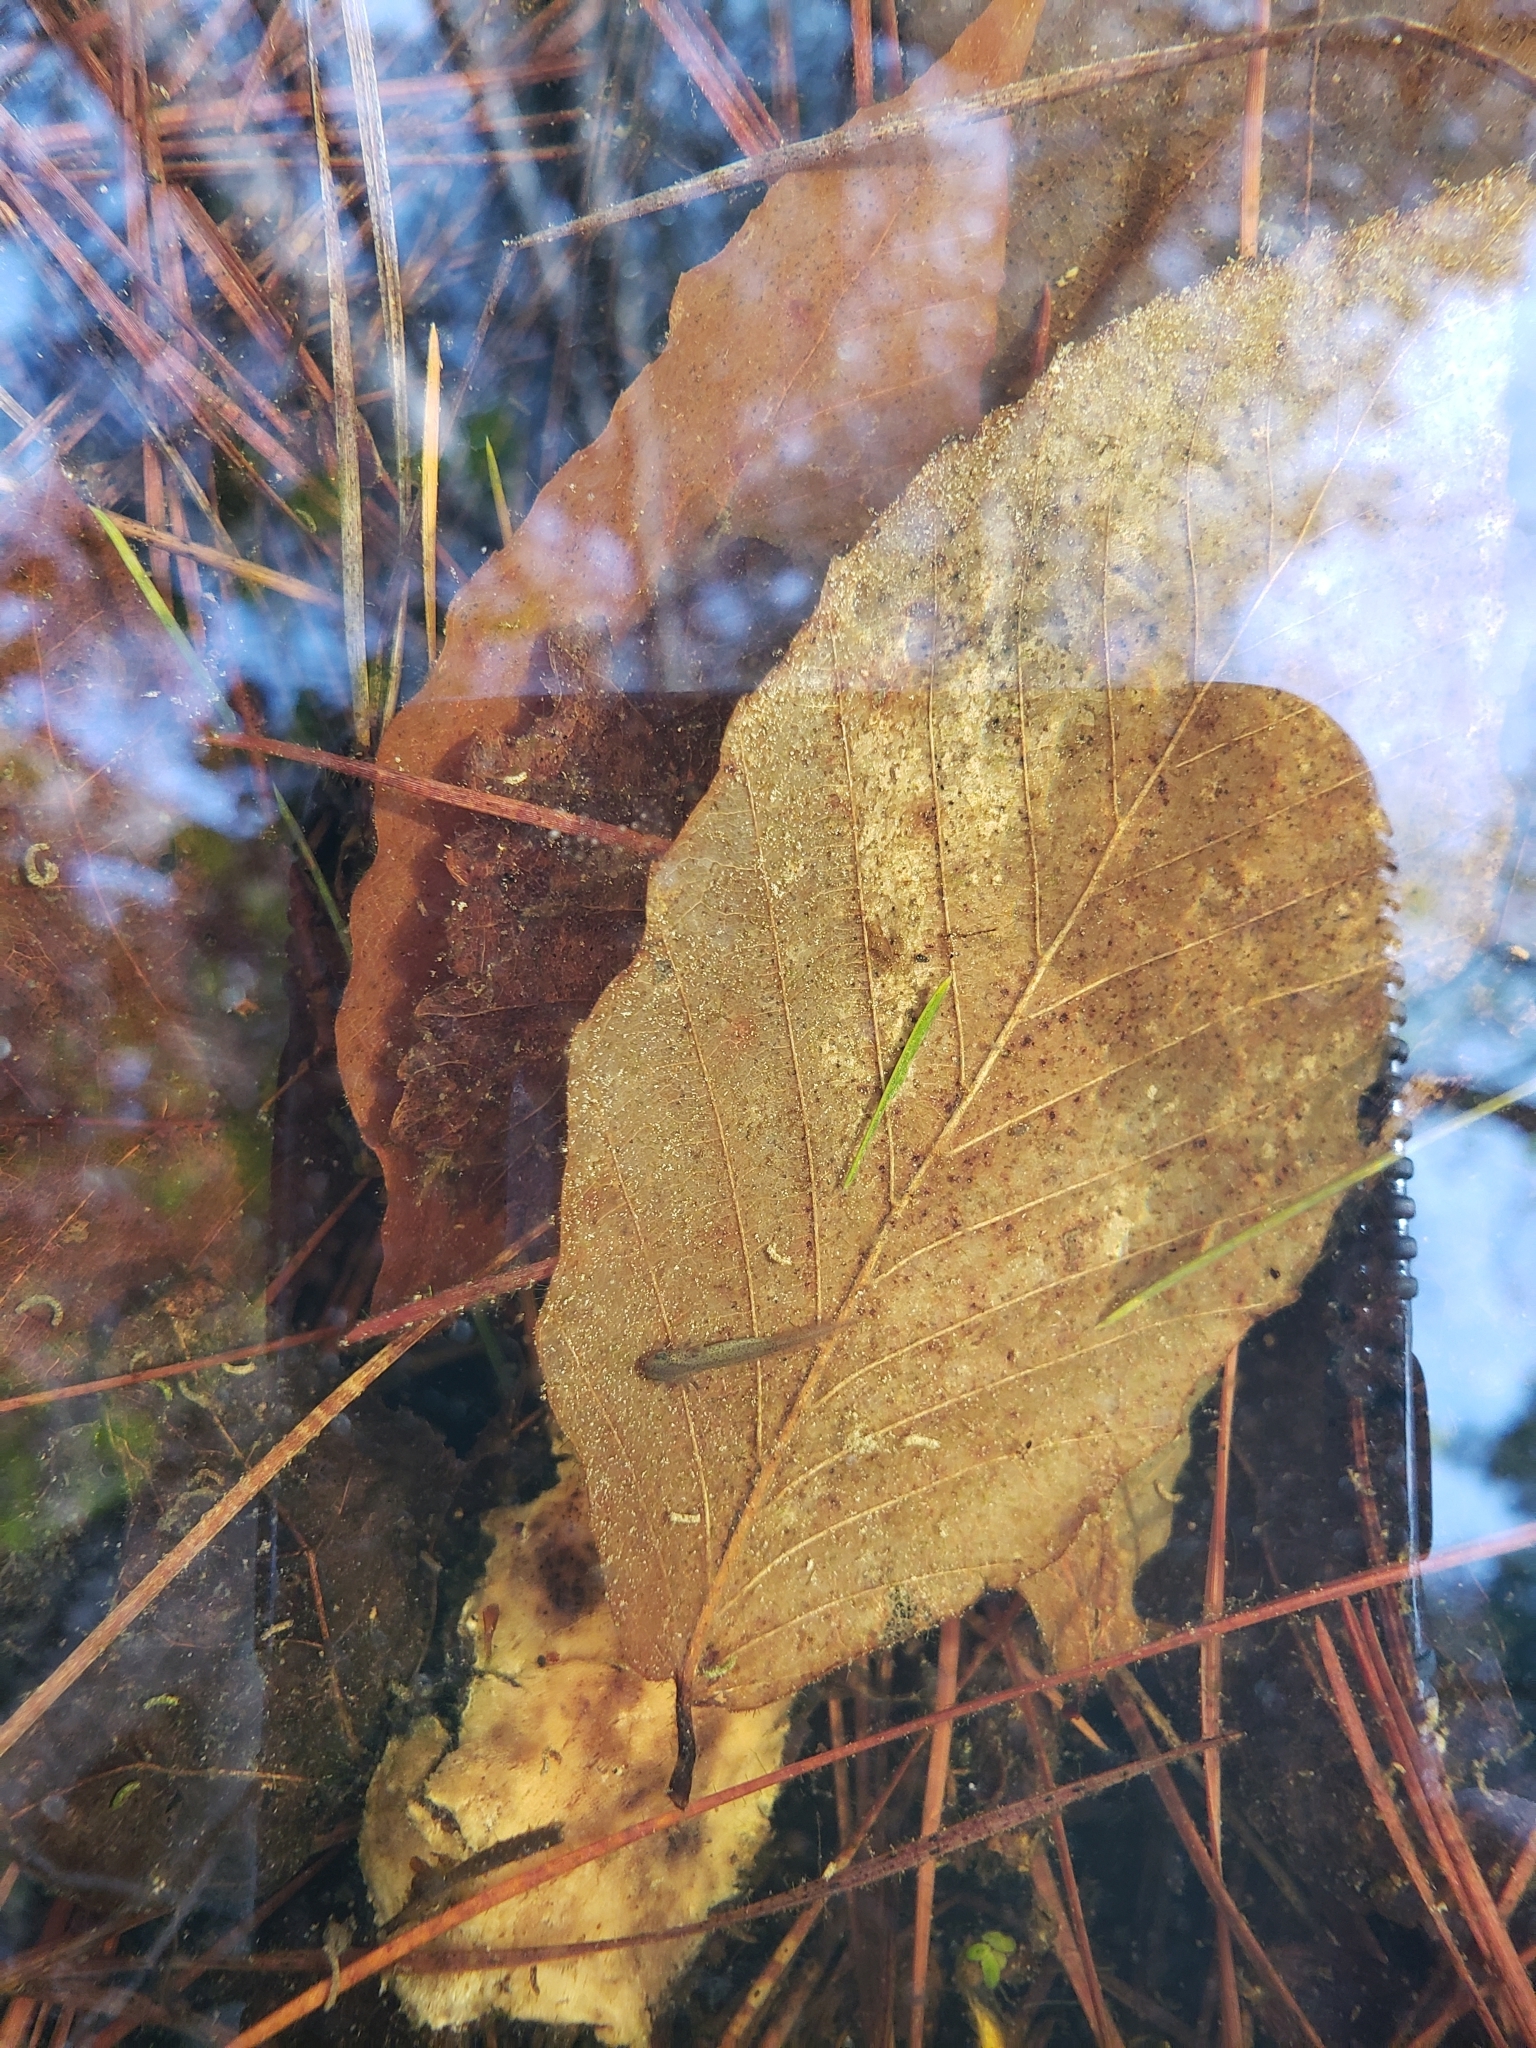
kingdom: Animalia
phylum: Chordata
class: Amphibia
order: Caudata
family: Ambystomatidae
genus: Ambystoma
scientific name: Ambystoma maculatum
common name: Spotted salamander
